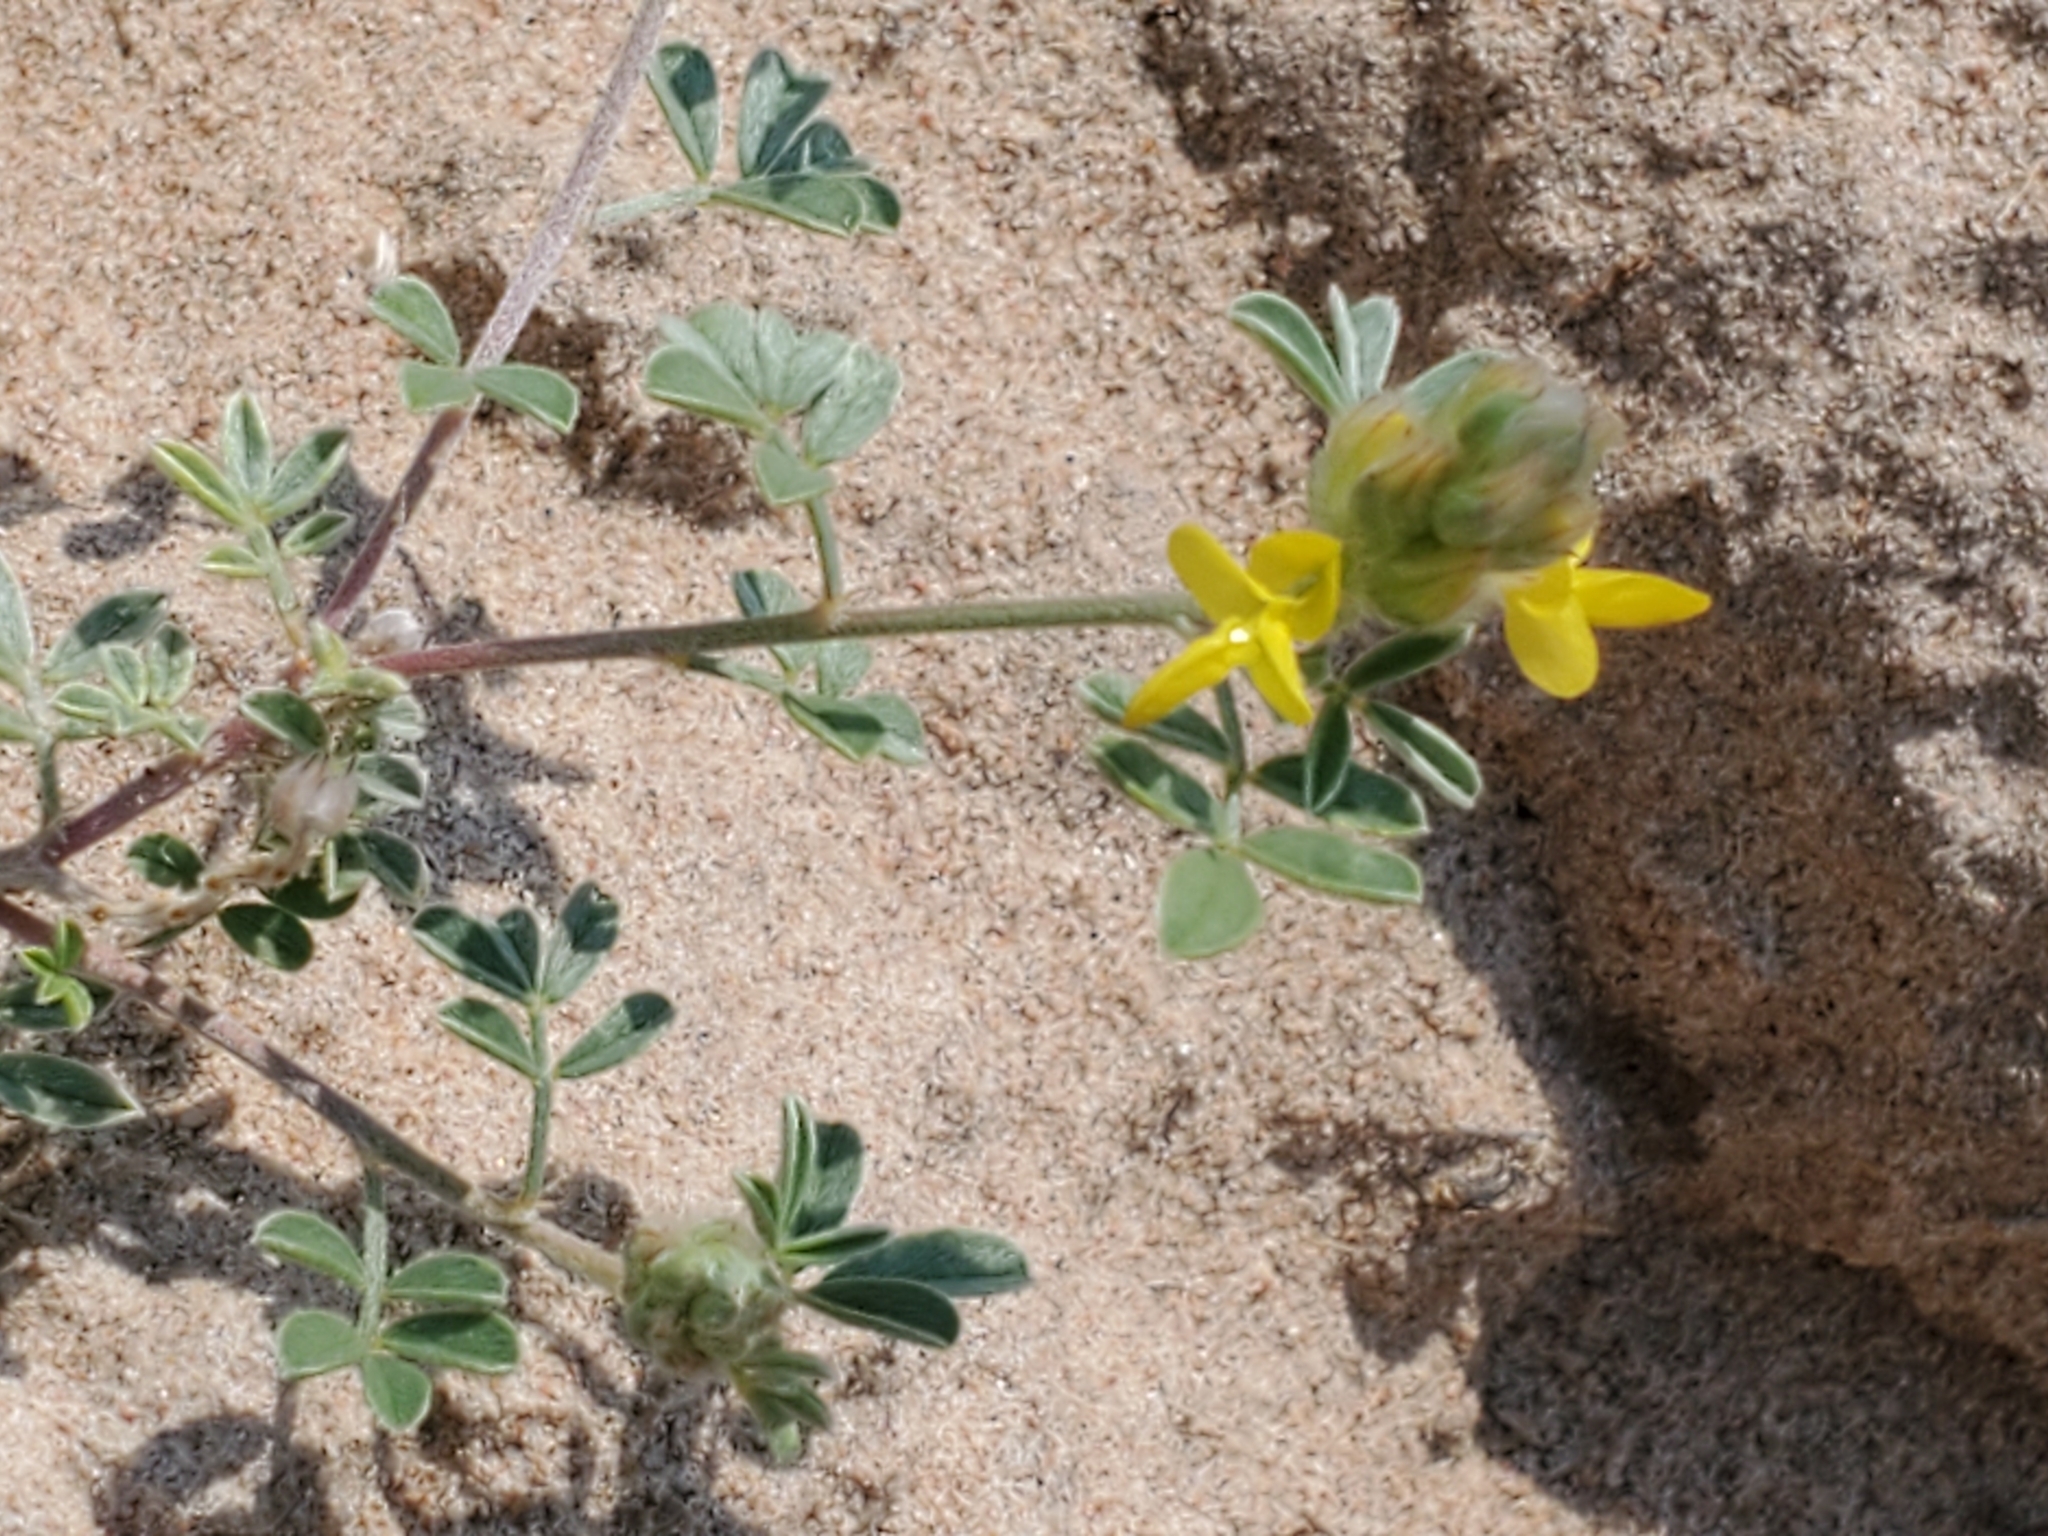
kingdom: Plantae
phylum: Tracheophyta
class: Magnoliopsida
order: Fabales
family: Fabaceae
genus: Dalea
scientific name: Dalea nana
